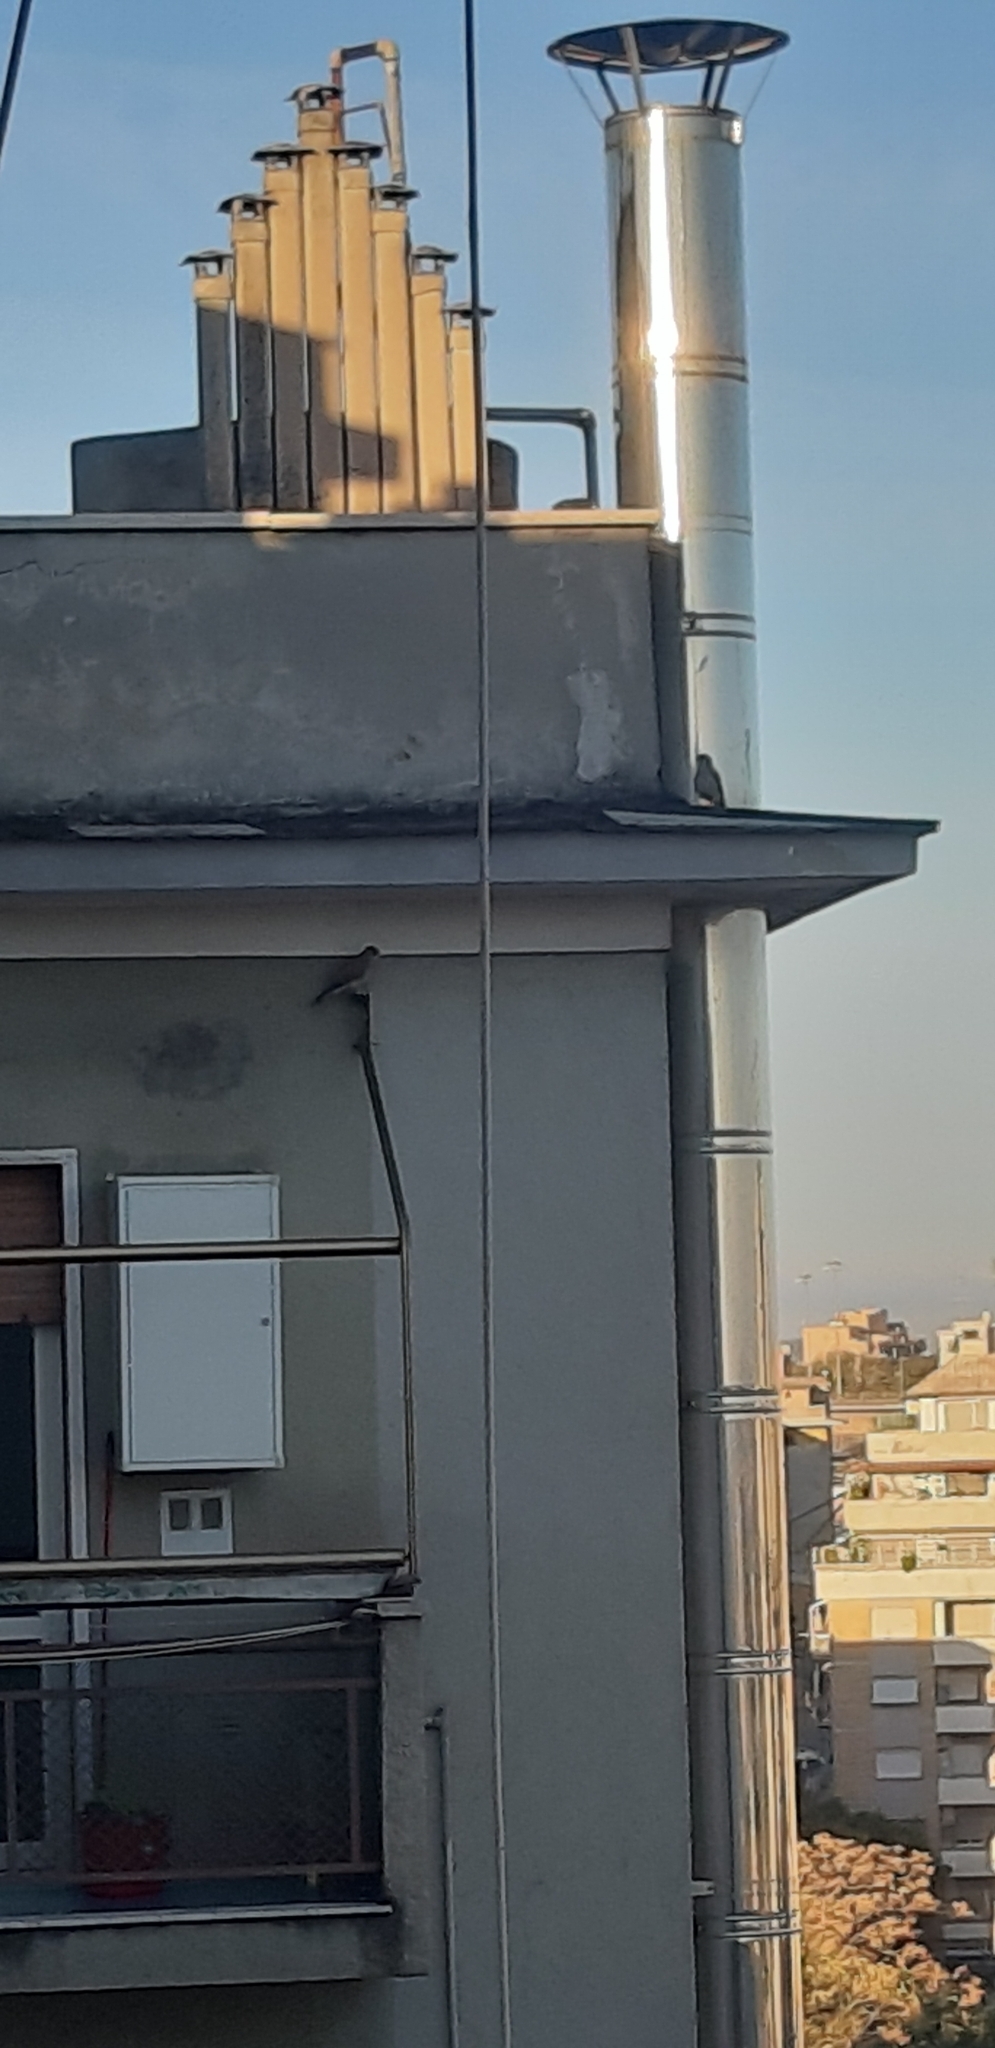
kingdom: Animalia
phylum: Chordata
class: Aves
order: Falconiformes
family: Falconidae
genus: Falco
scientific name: Falco tinnunculus
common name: Common kestrel
